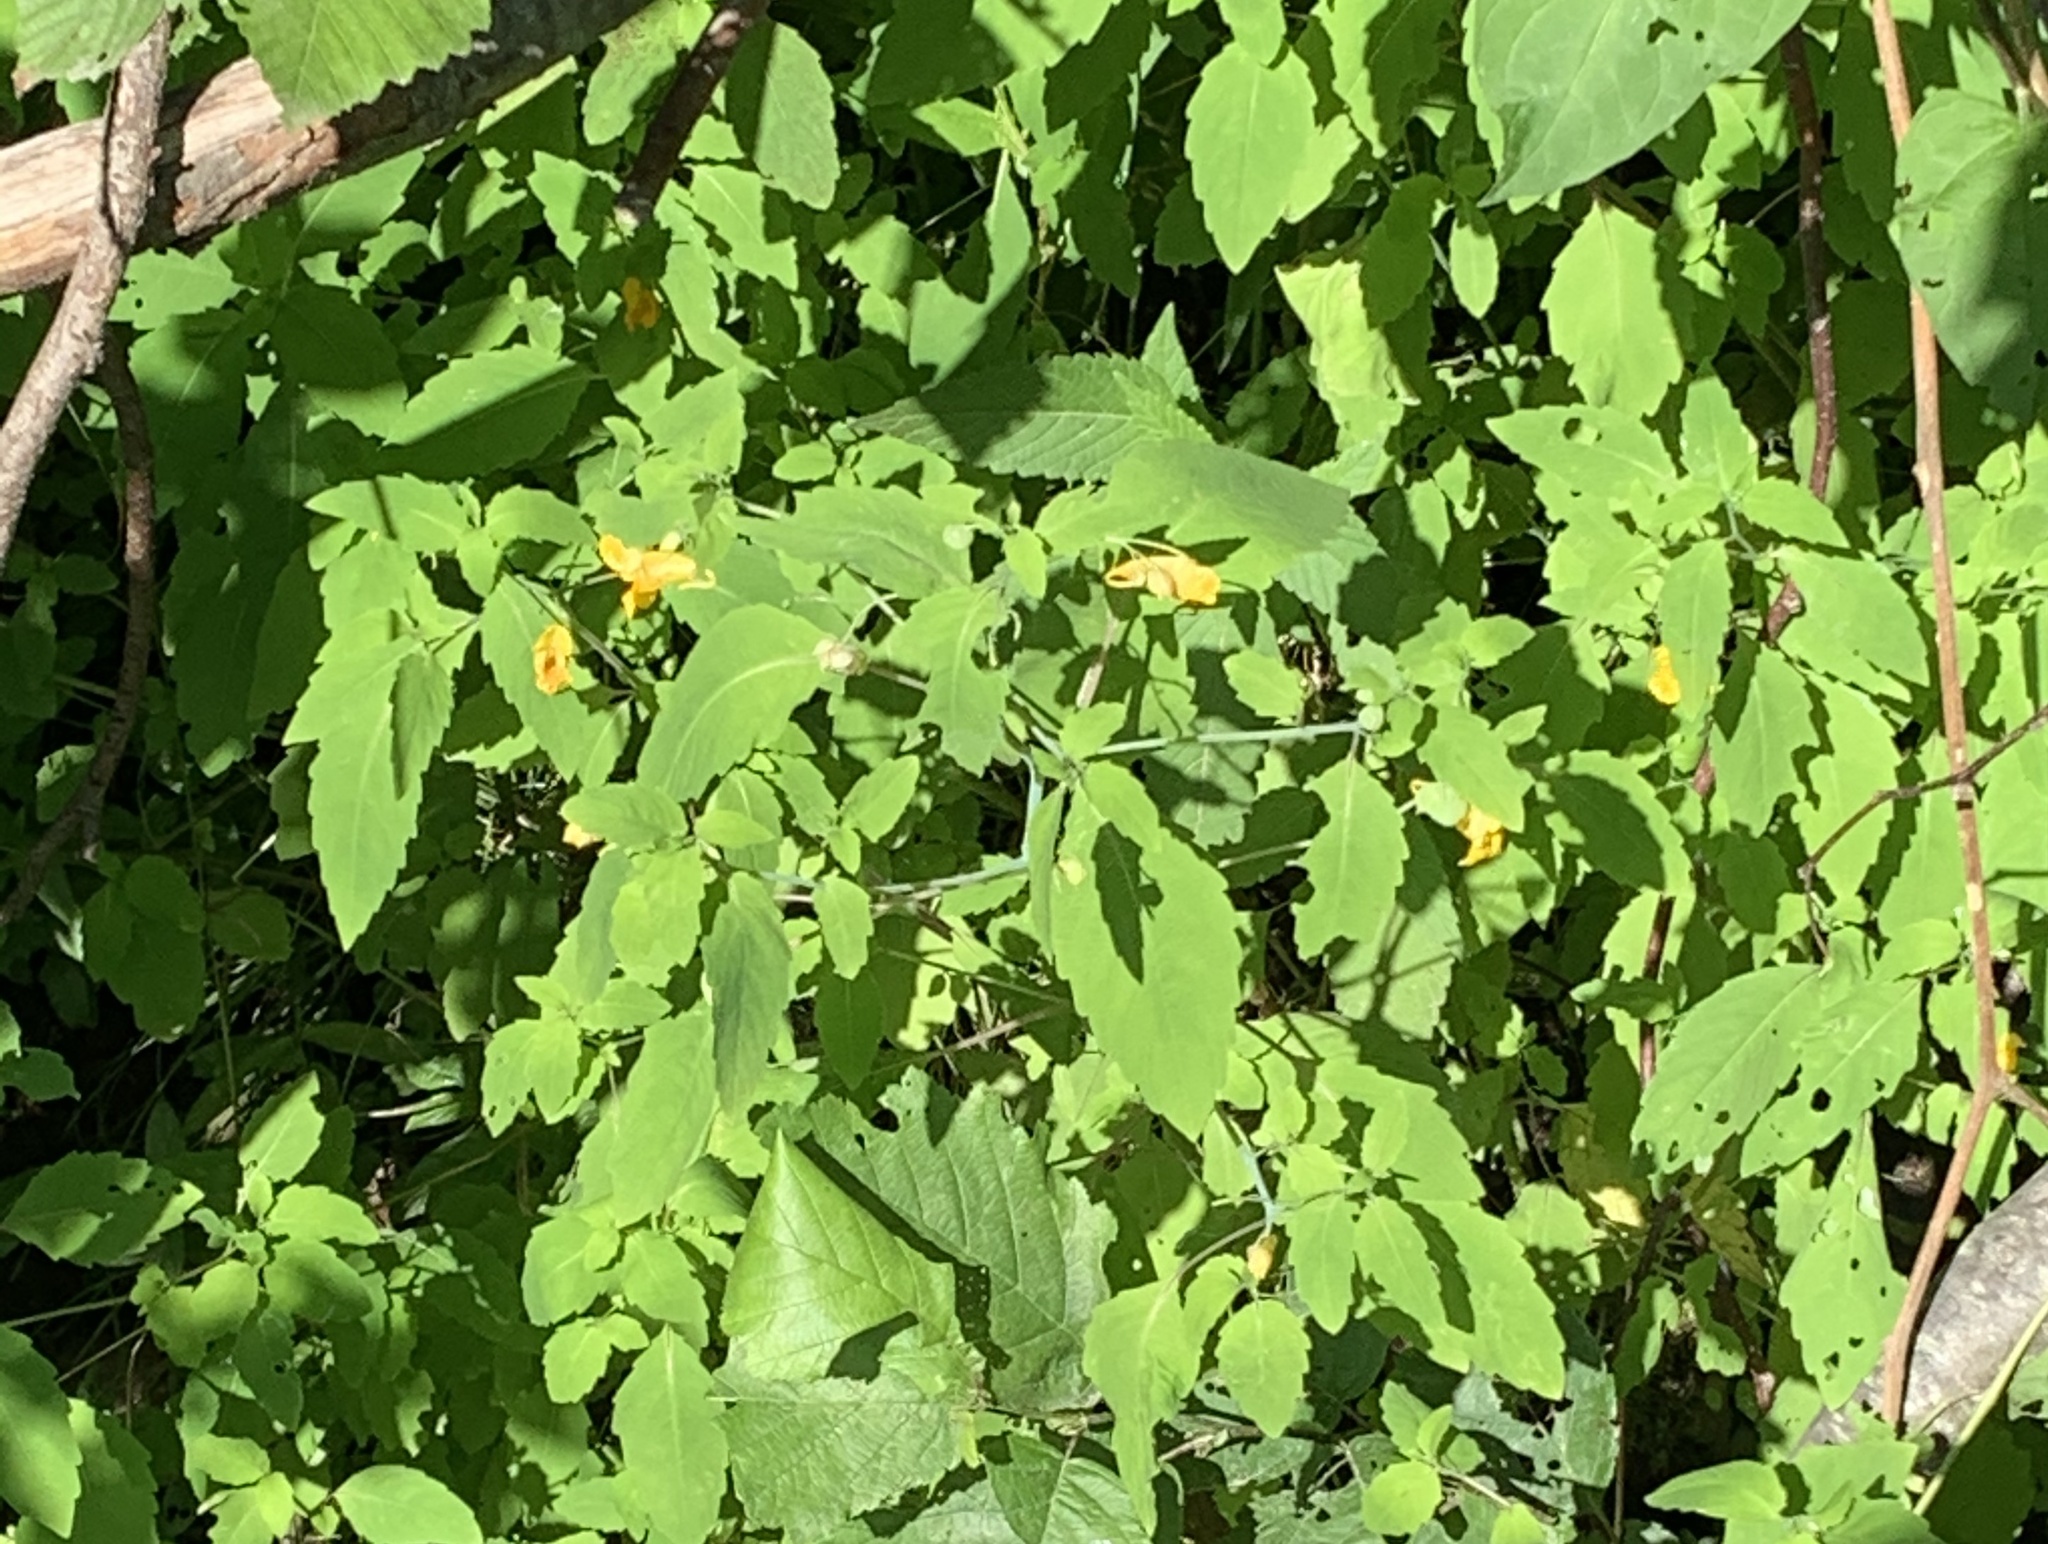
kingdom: Plantae
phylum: Tracheophyta
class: Magnoliopsida
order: Ericales
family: Balsaminaceae
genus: Impatiens
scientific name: Impatiens capensis
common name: Orange balsam
